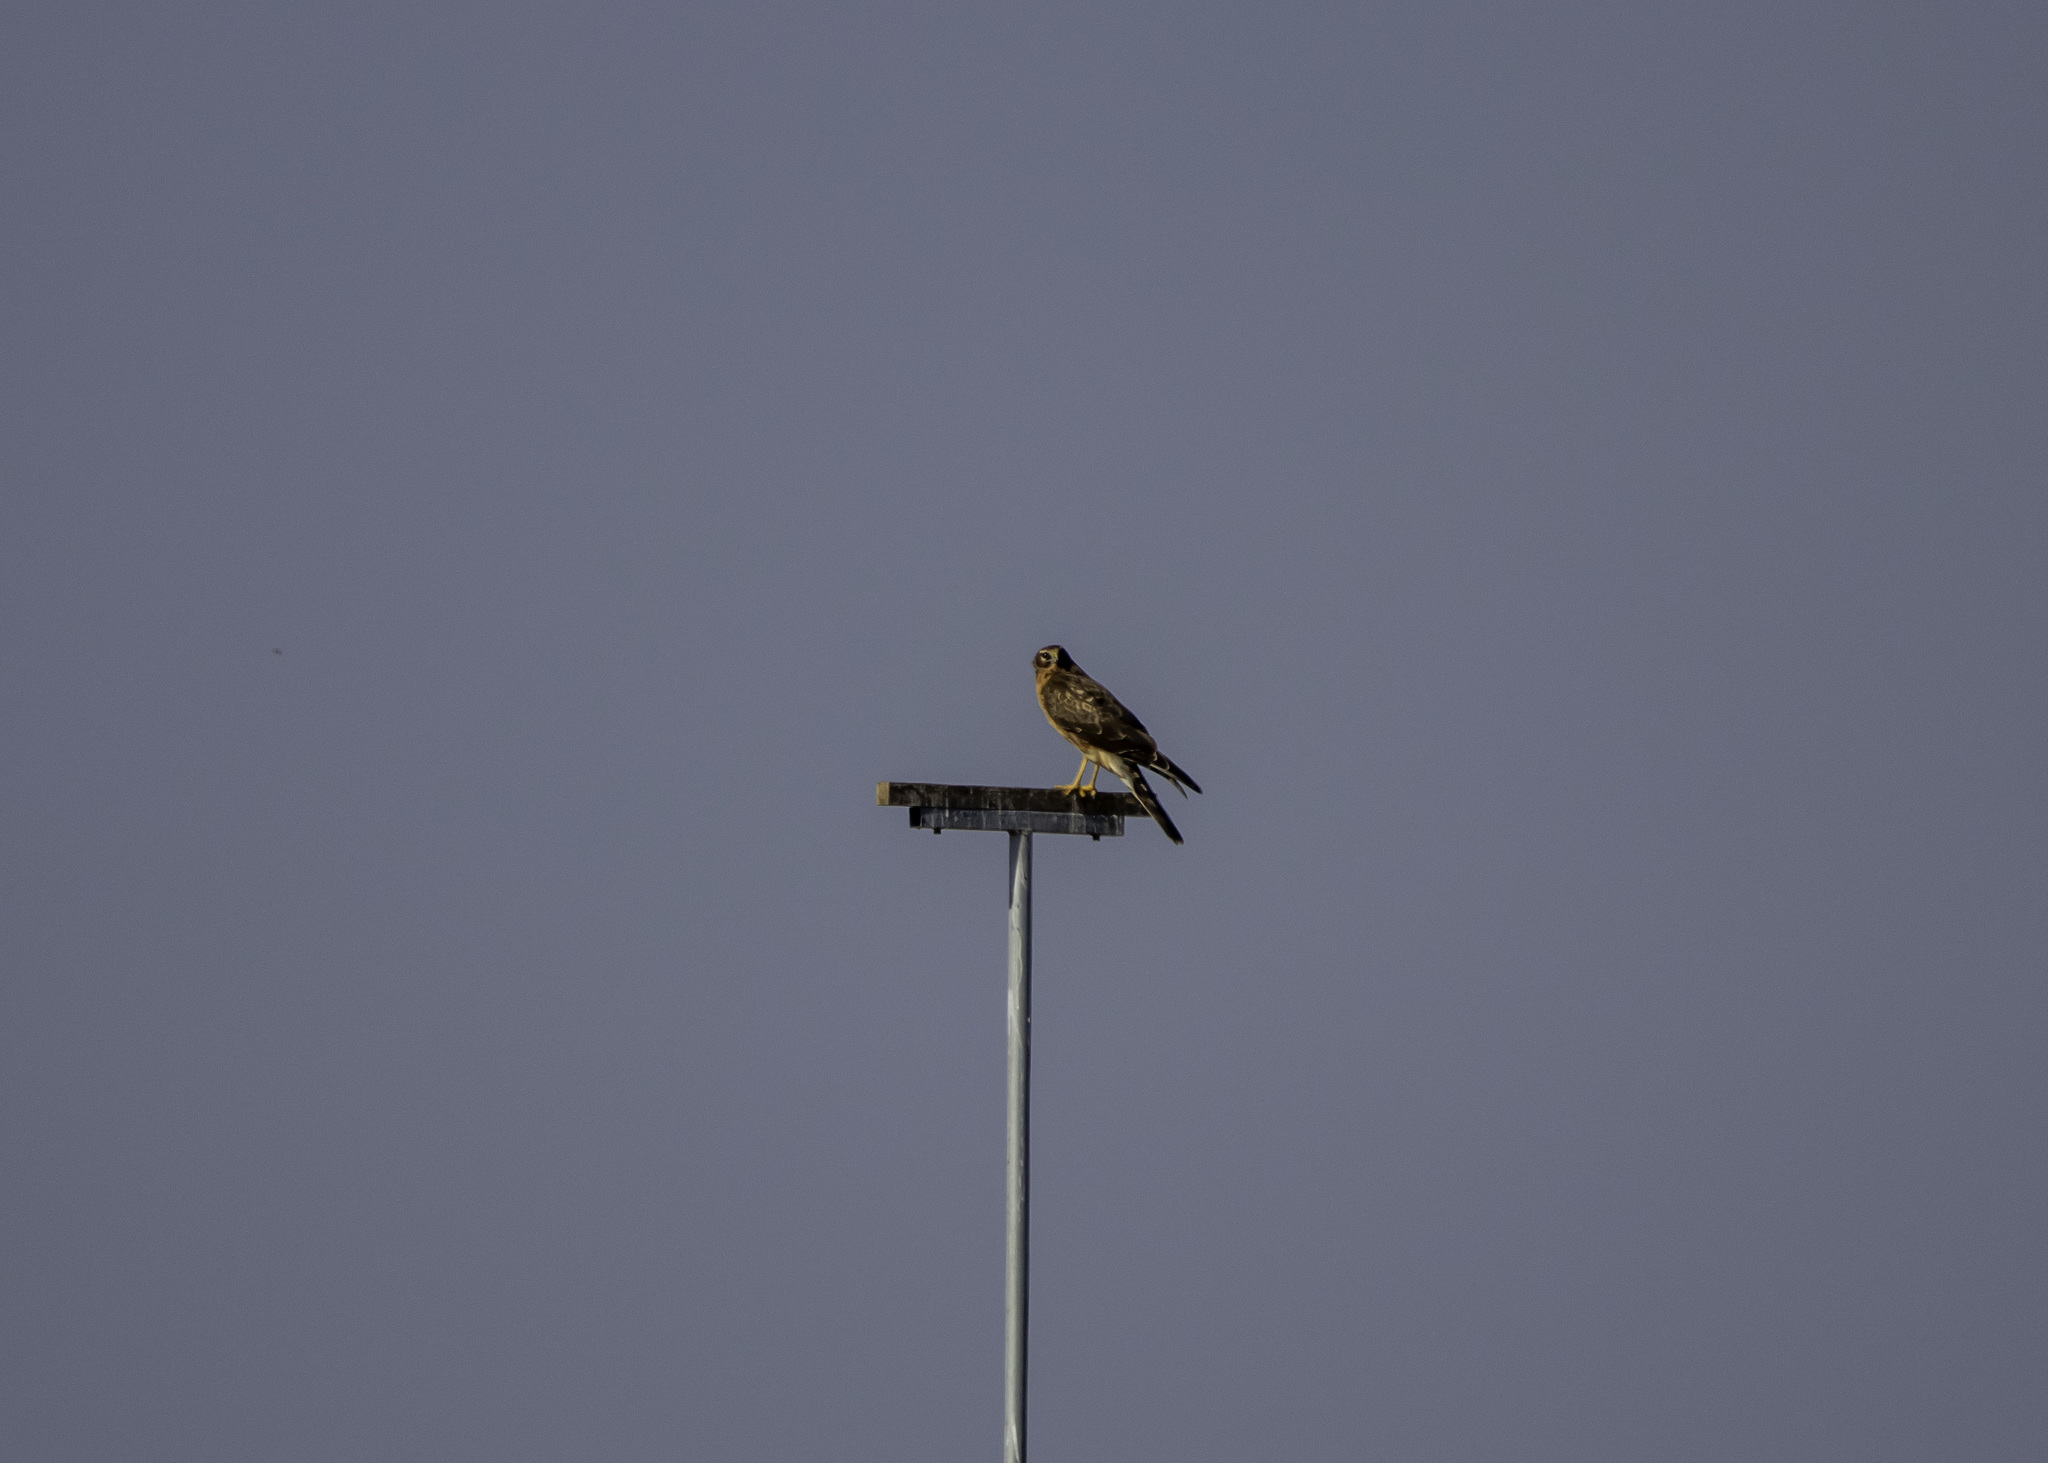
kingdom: Animalia
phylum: Chordata
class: Aves
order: Accipitriformes
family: Accipitridae
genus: Circus
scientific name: Circus cyaneus
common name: Hen harrier
